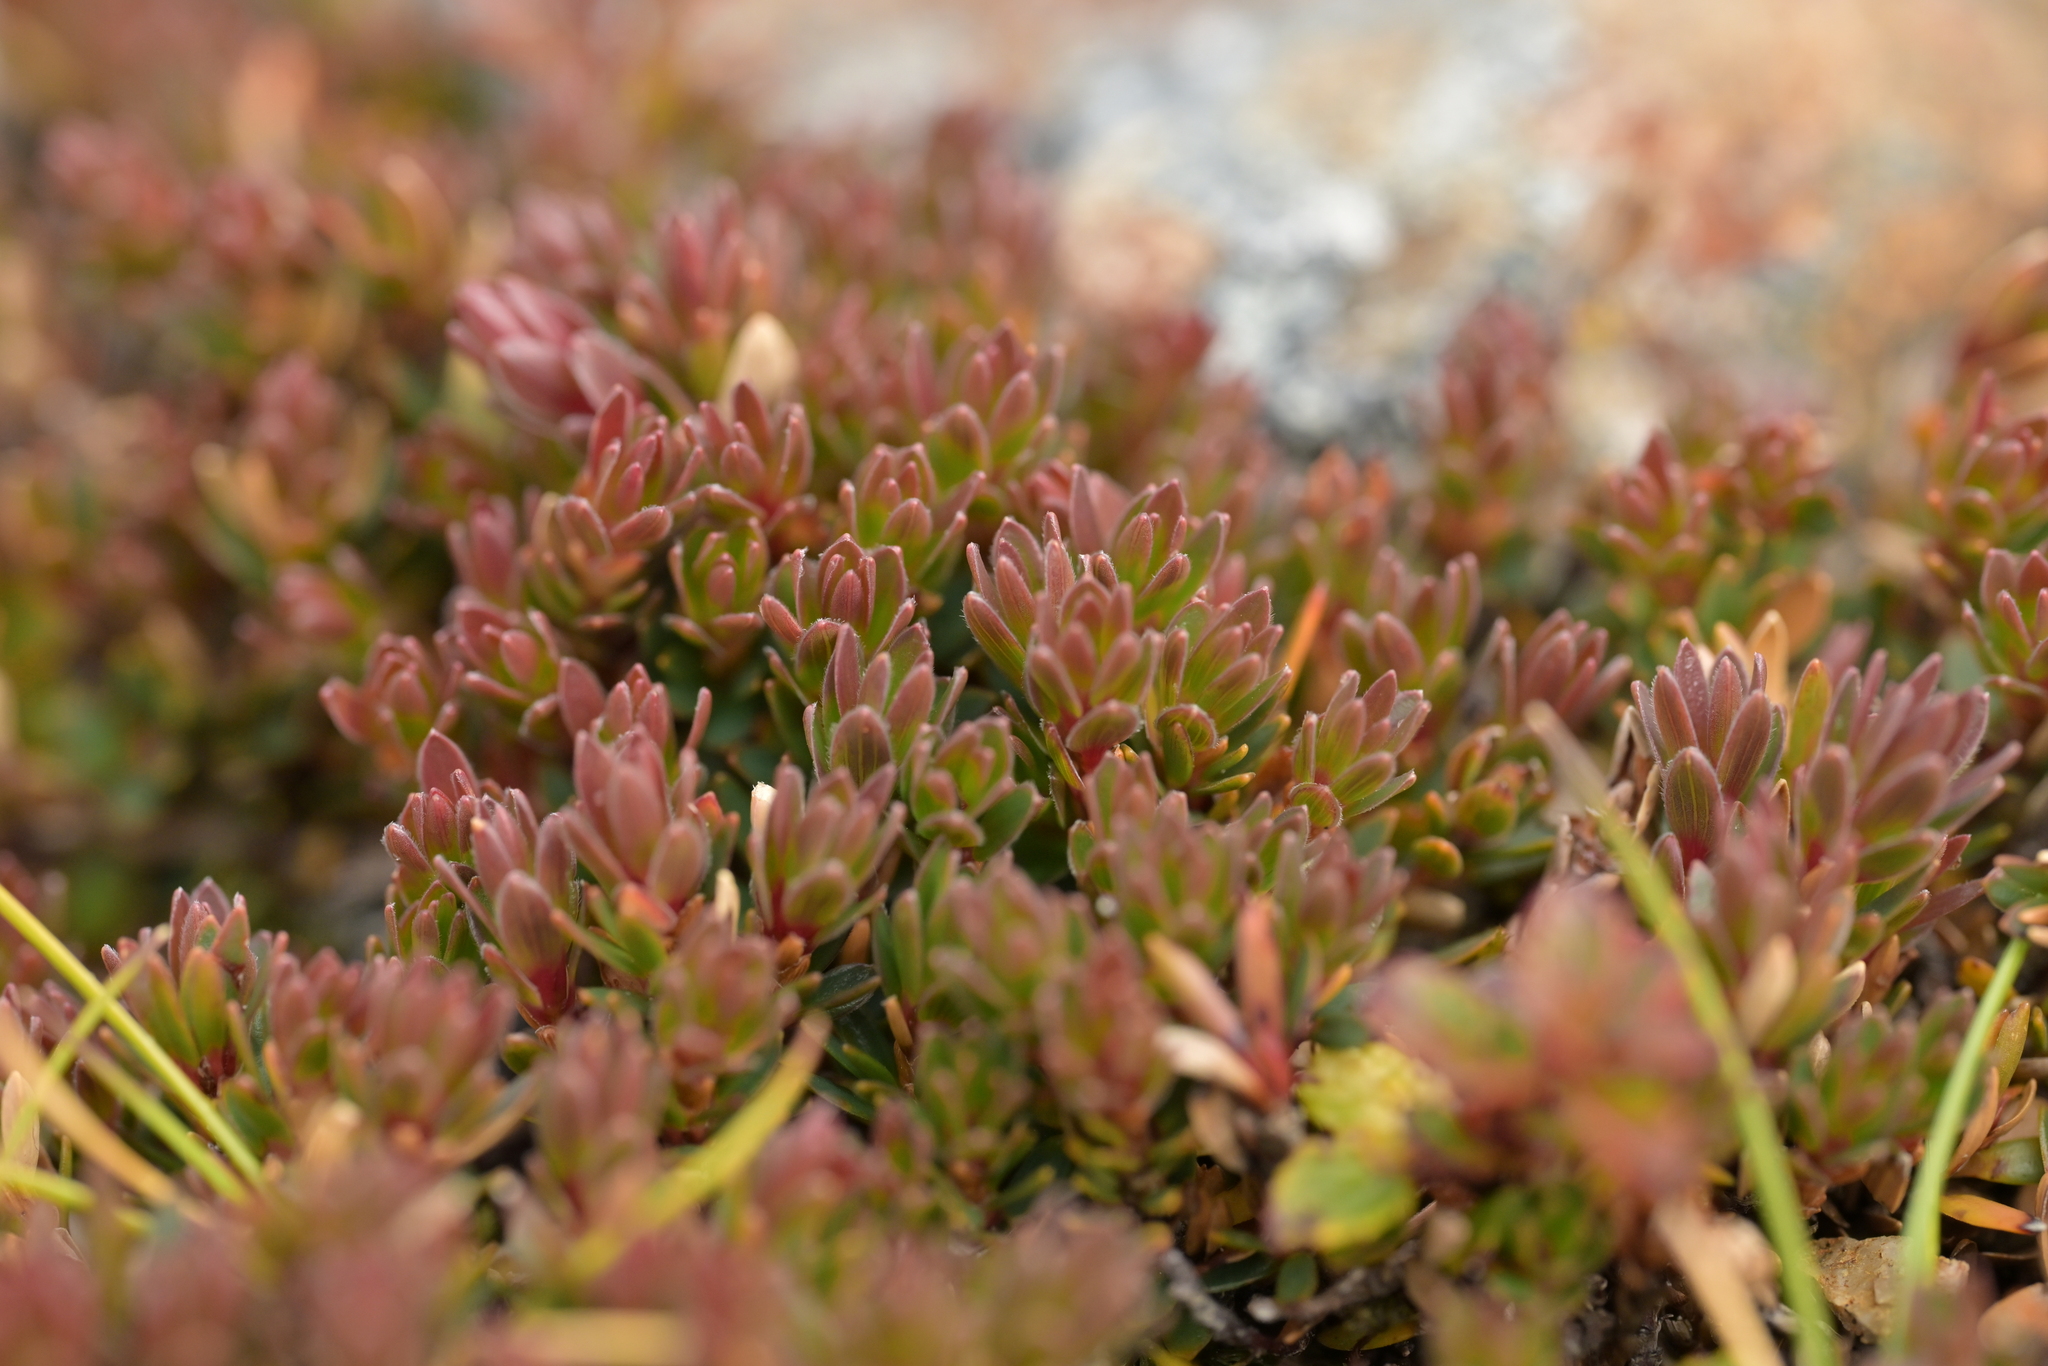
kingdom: Plantae
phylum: Tracheophyta
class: Magnoliopsida
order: Ericales
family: Ericaceae
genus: Pentachondra
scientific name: Pentachondra pumila
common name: Carpet-heath
